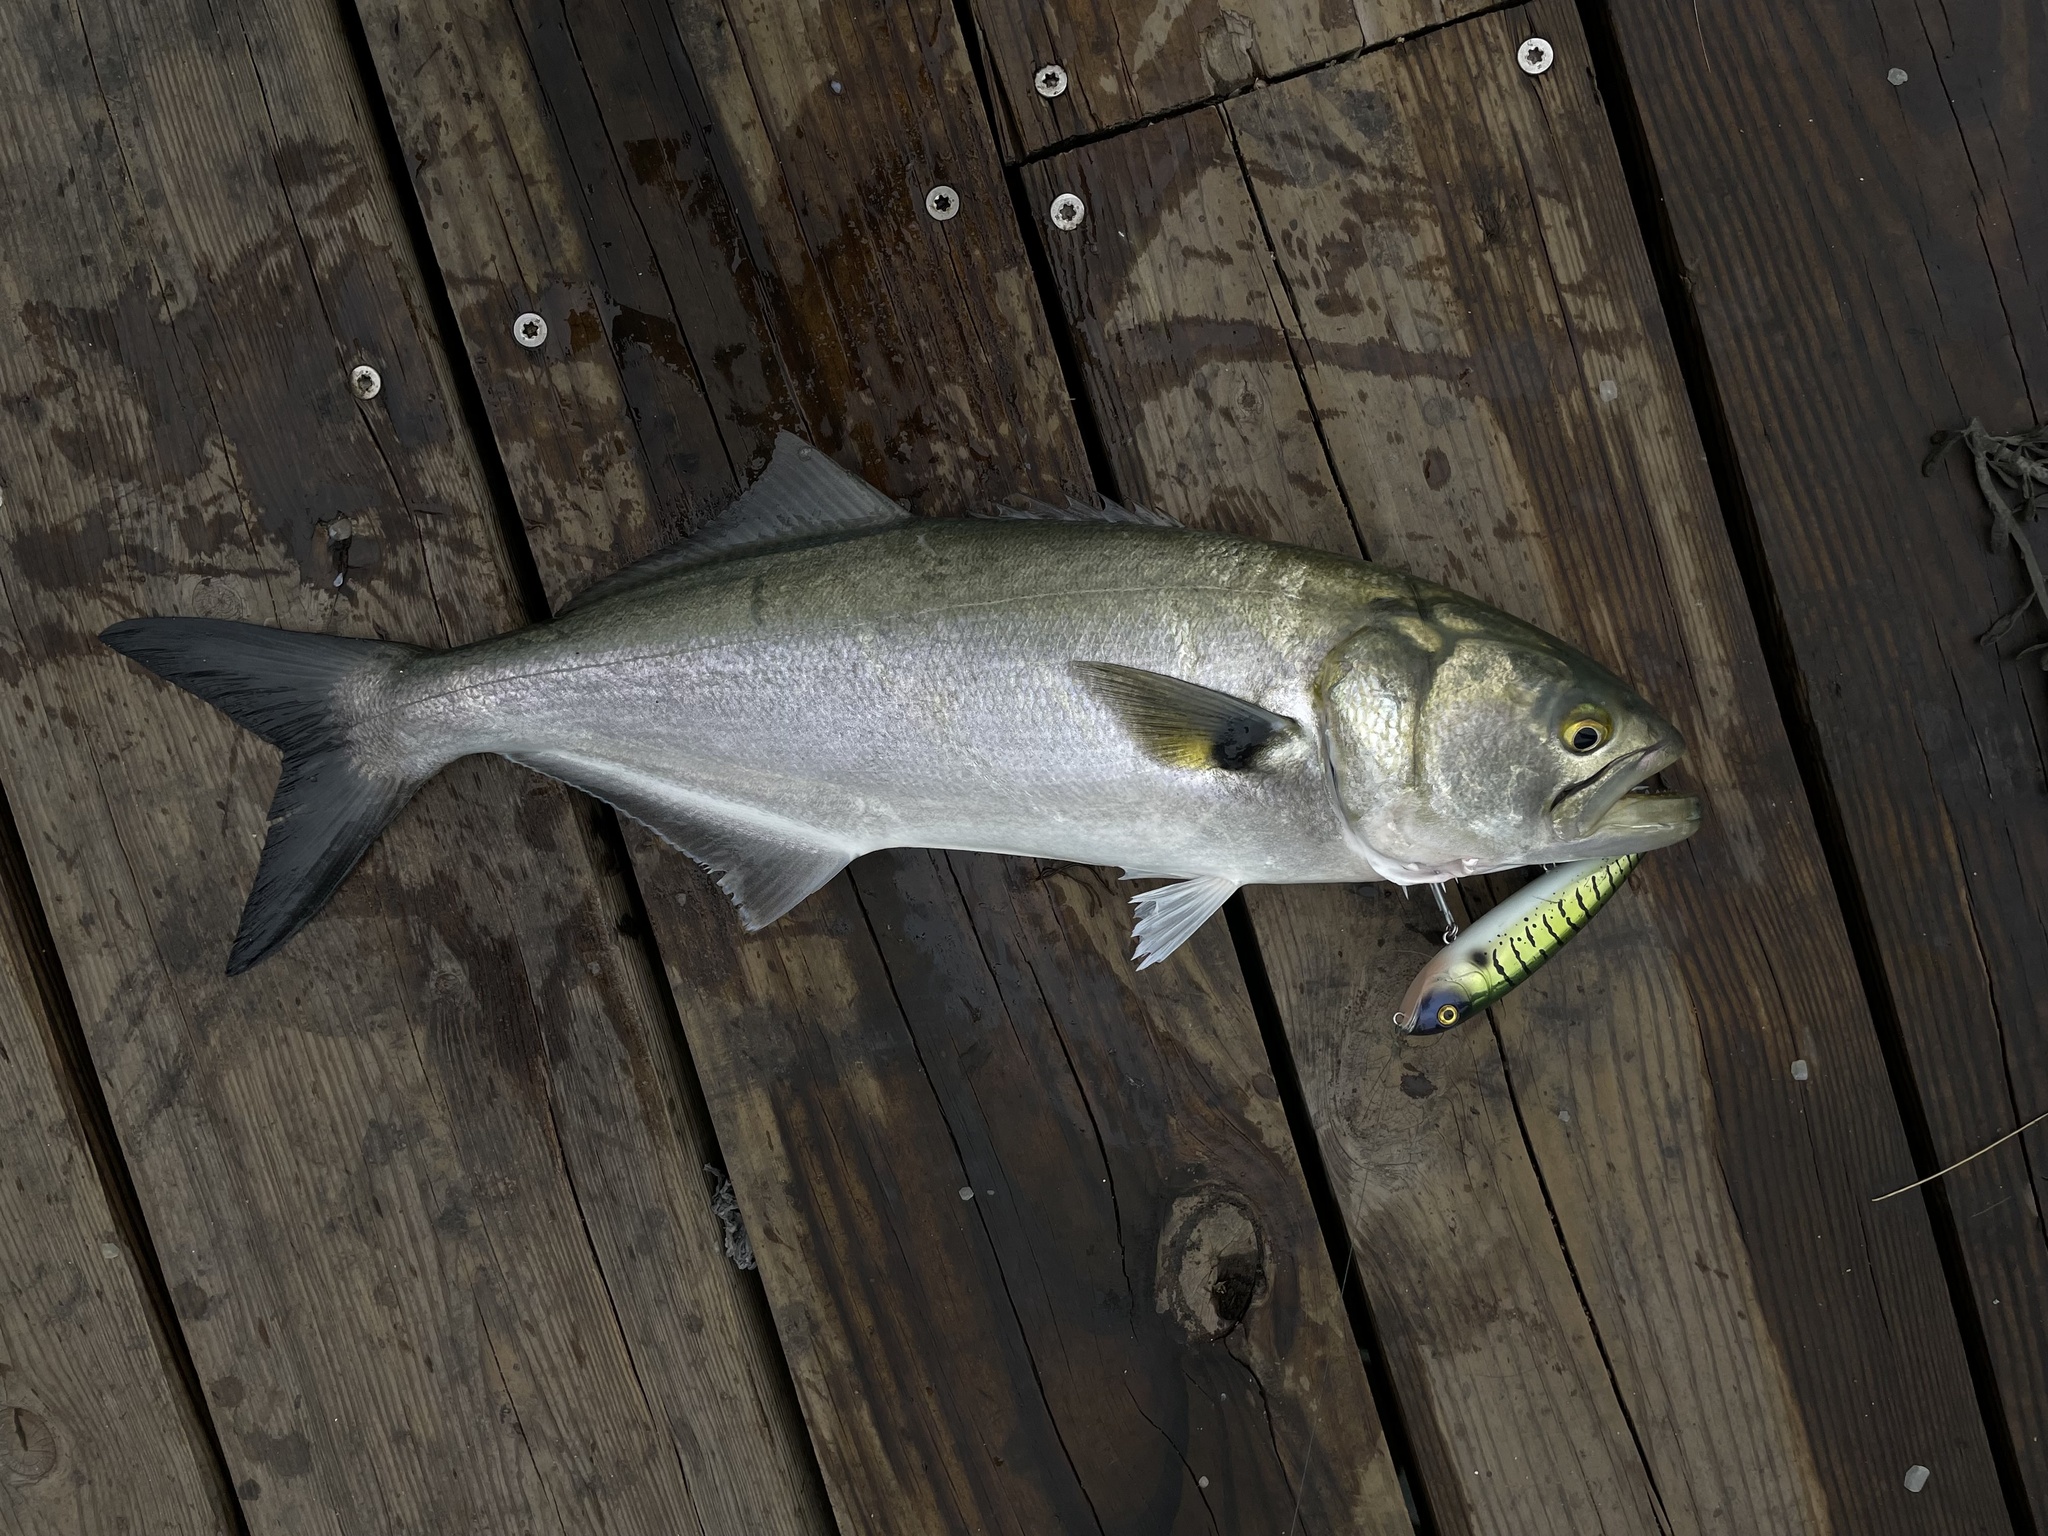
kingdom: Animalia
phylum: Chordata
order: Perciformes
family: Pomatomidae
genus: Pomatomus
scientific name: Pomatomus saltatrix
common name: Bluefish
